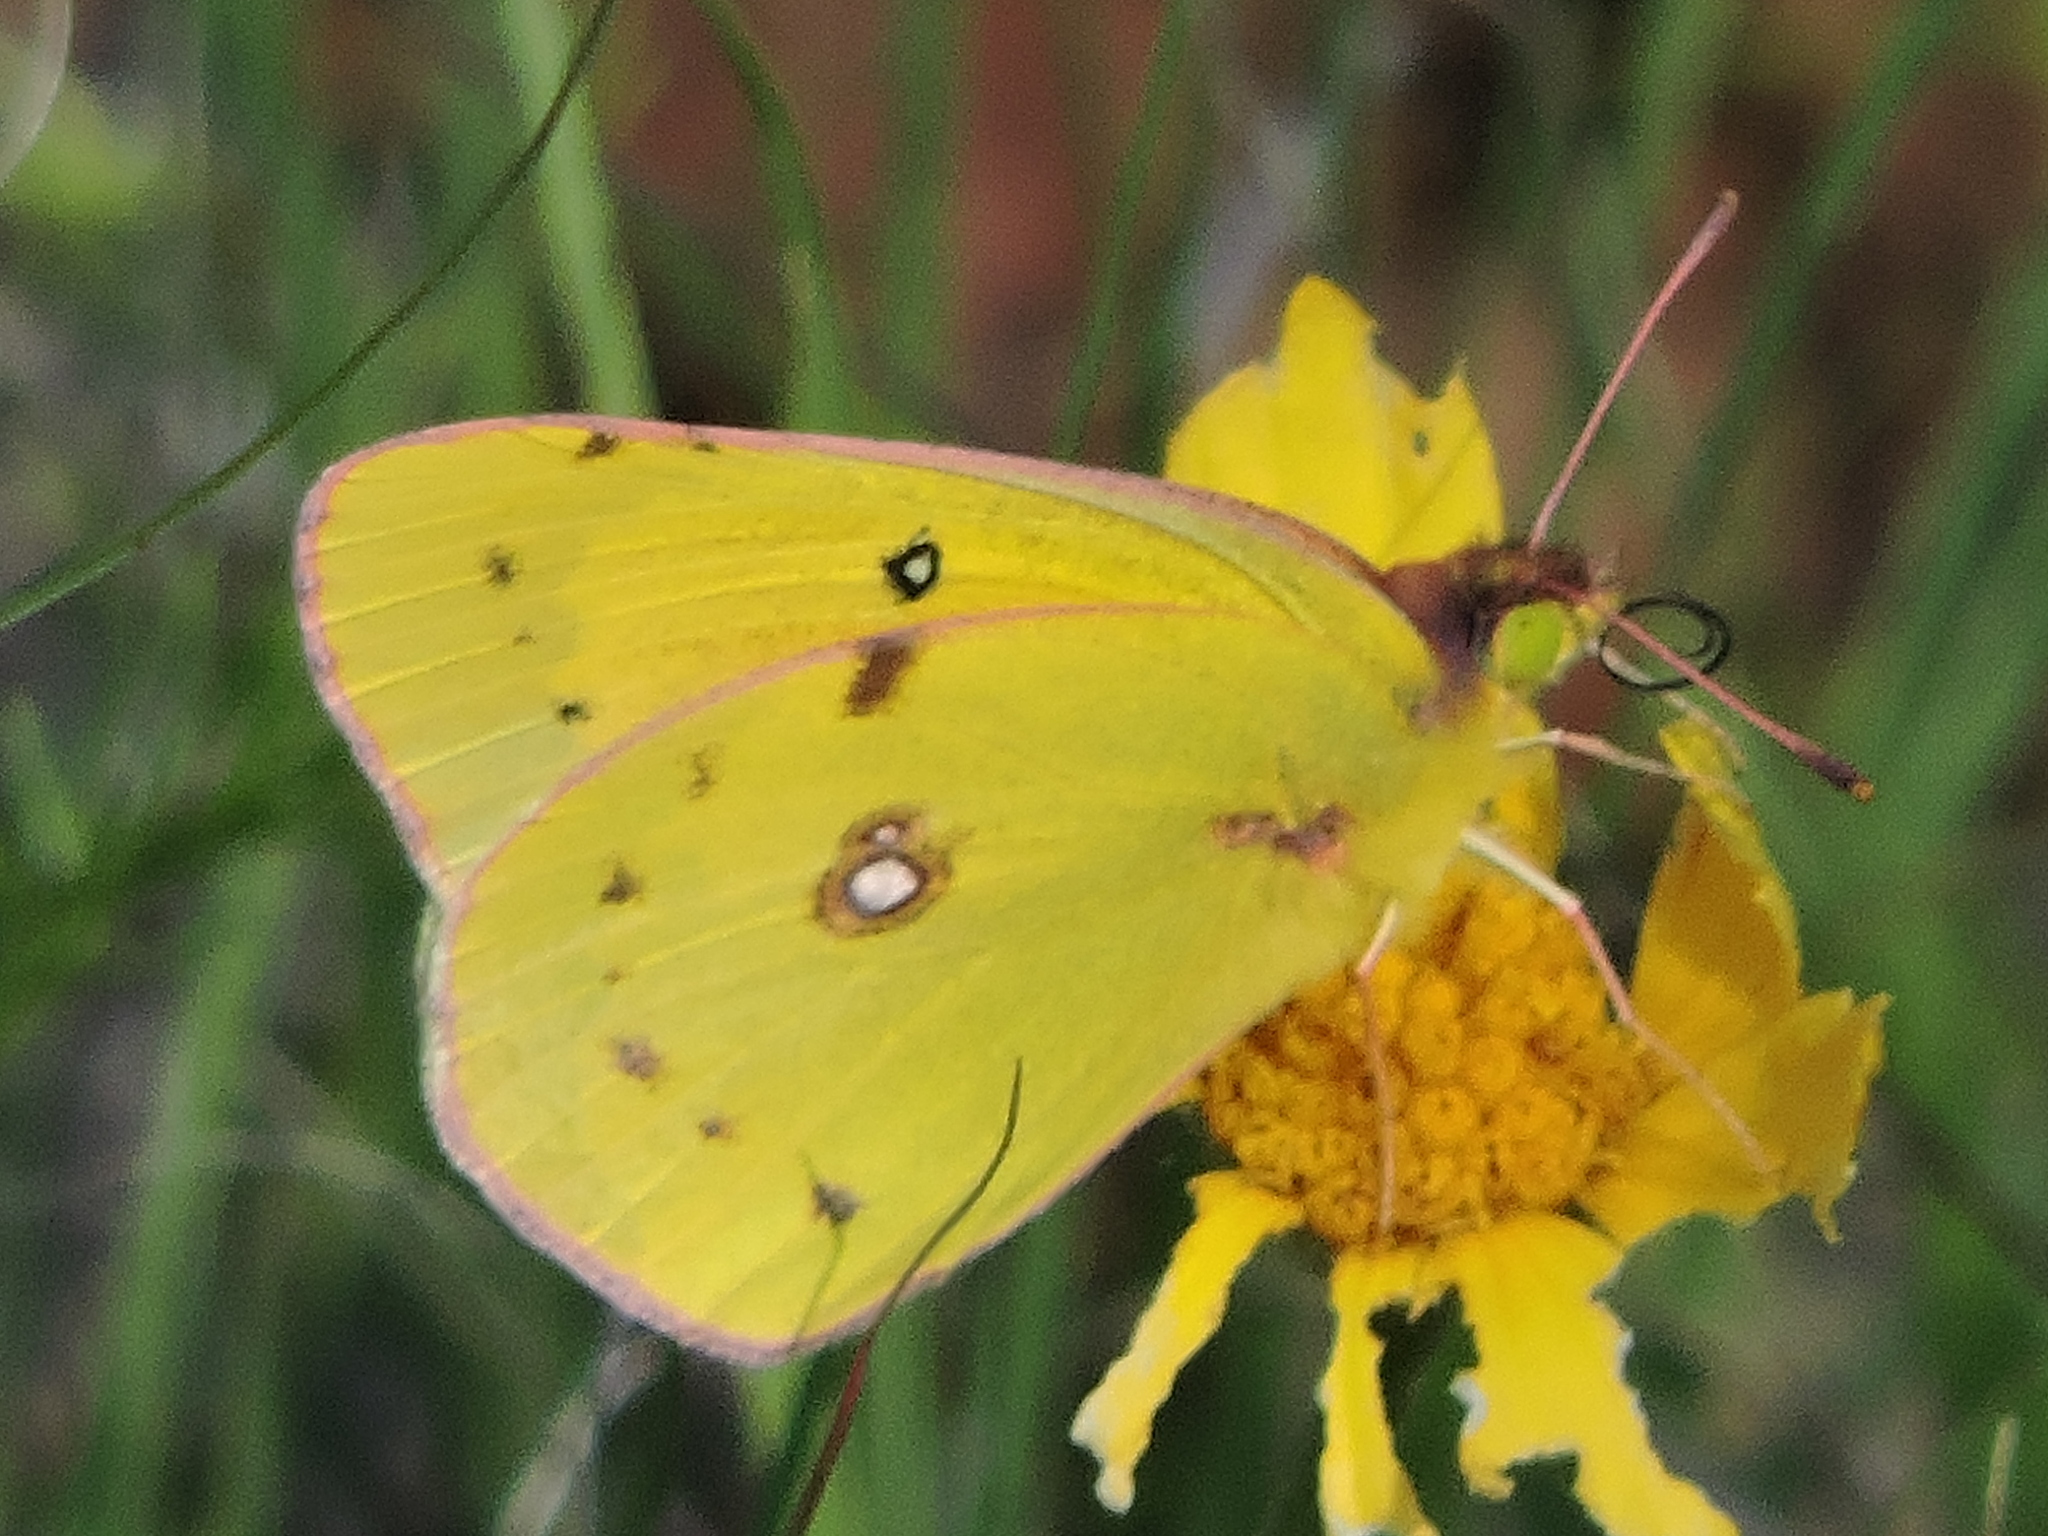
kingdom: Animalia
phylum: Arthropoda
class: Insecta
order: Lepidoptera
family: Pieridae
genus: Colias
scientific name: Colias eurytheme
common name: Alfalfa butterfly
